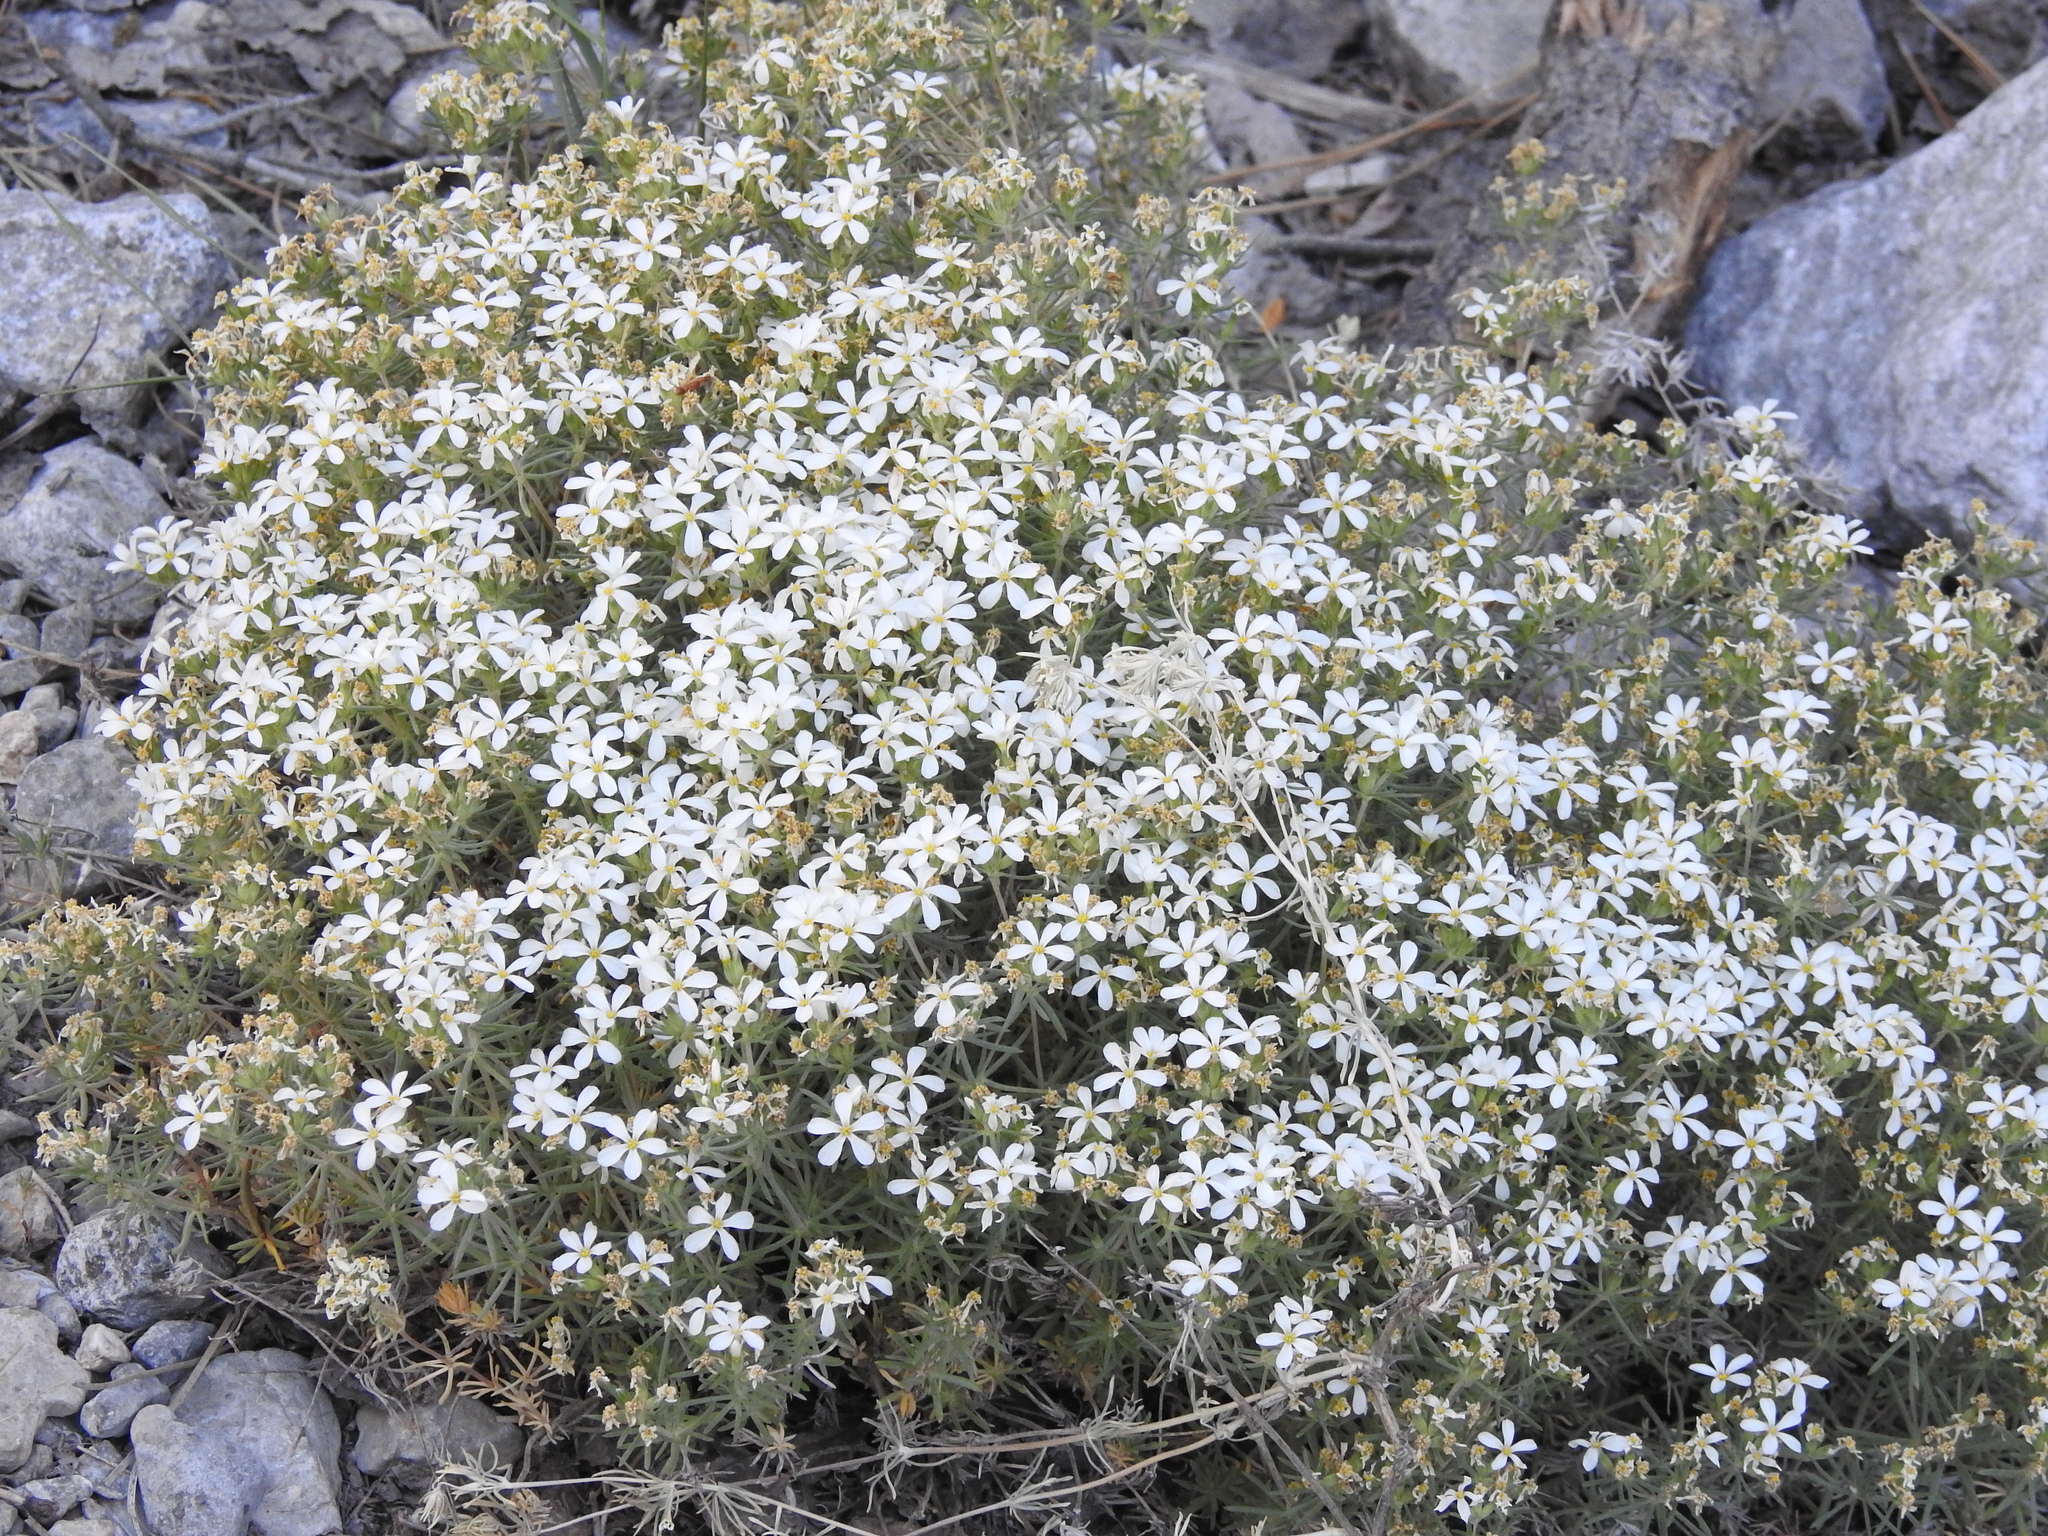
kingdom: Plantae
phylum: Tracheophyta
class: Magnoliopsida
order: Ericales
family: Polemoniaceae
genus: Leptosiphon
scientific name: Leptosiphon nuttallii
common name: Nuttall's linanthus
